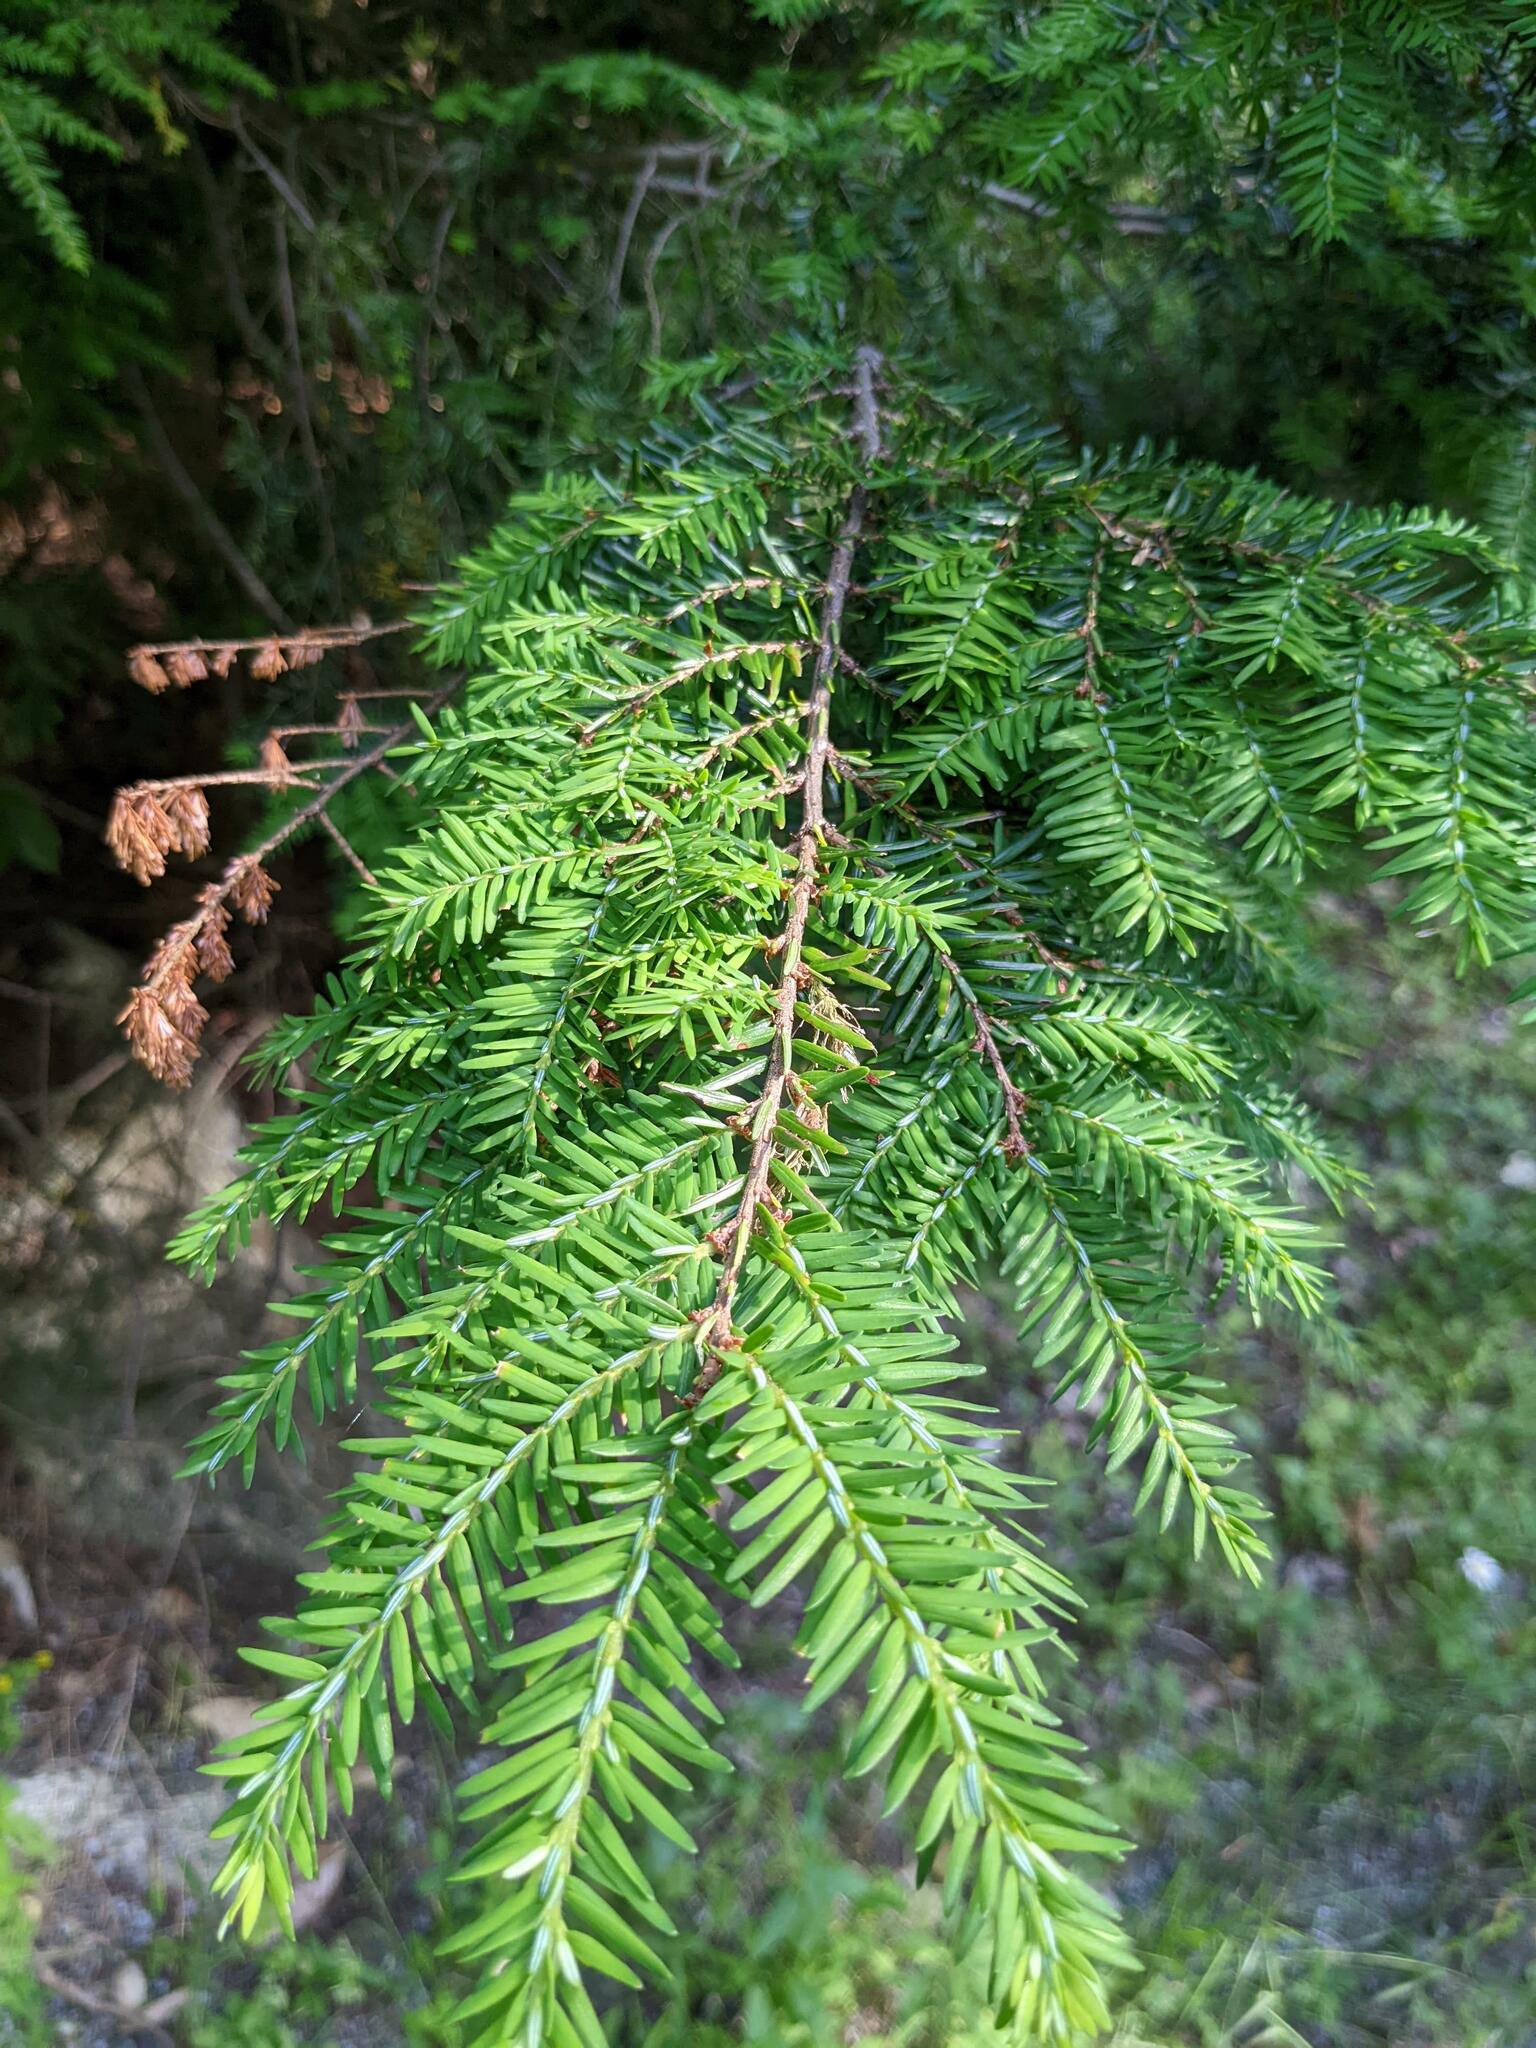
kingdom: Plantae
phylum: Tracheophyta
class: Pinopsida
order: Pinales
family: Pinaceae
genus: Tsuga
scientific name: Tsuga canadensis
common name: Eastern hemlock
